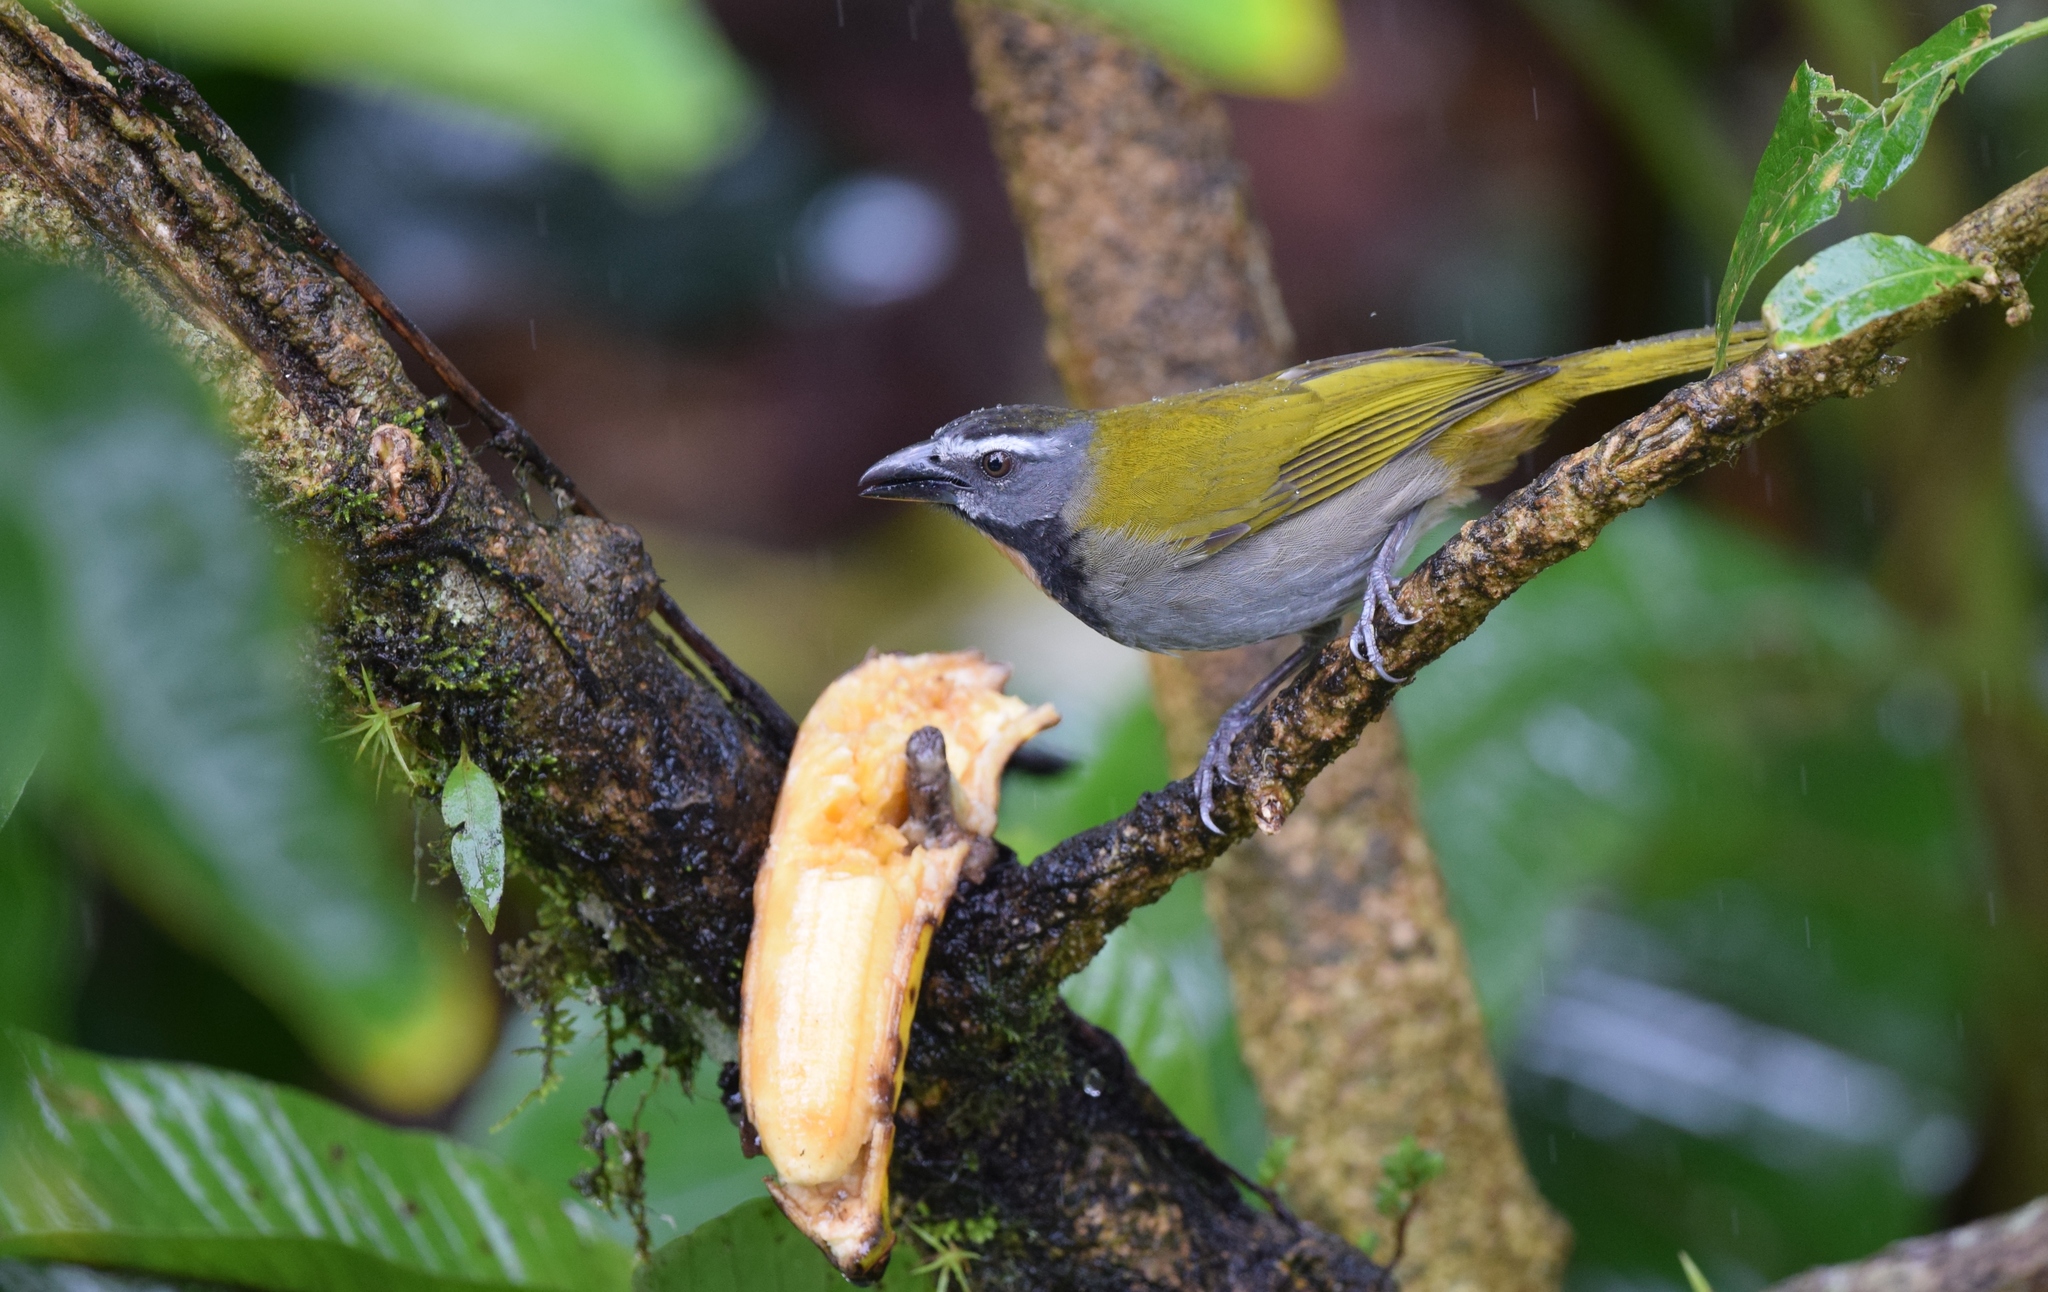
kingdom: Animalia
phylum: Chordata
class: Aves
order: Passeriformes
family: Thraupidae
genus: Saltator
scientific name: Saltator maximus
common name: Buff-throated saltator
